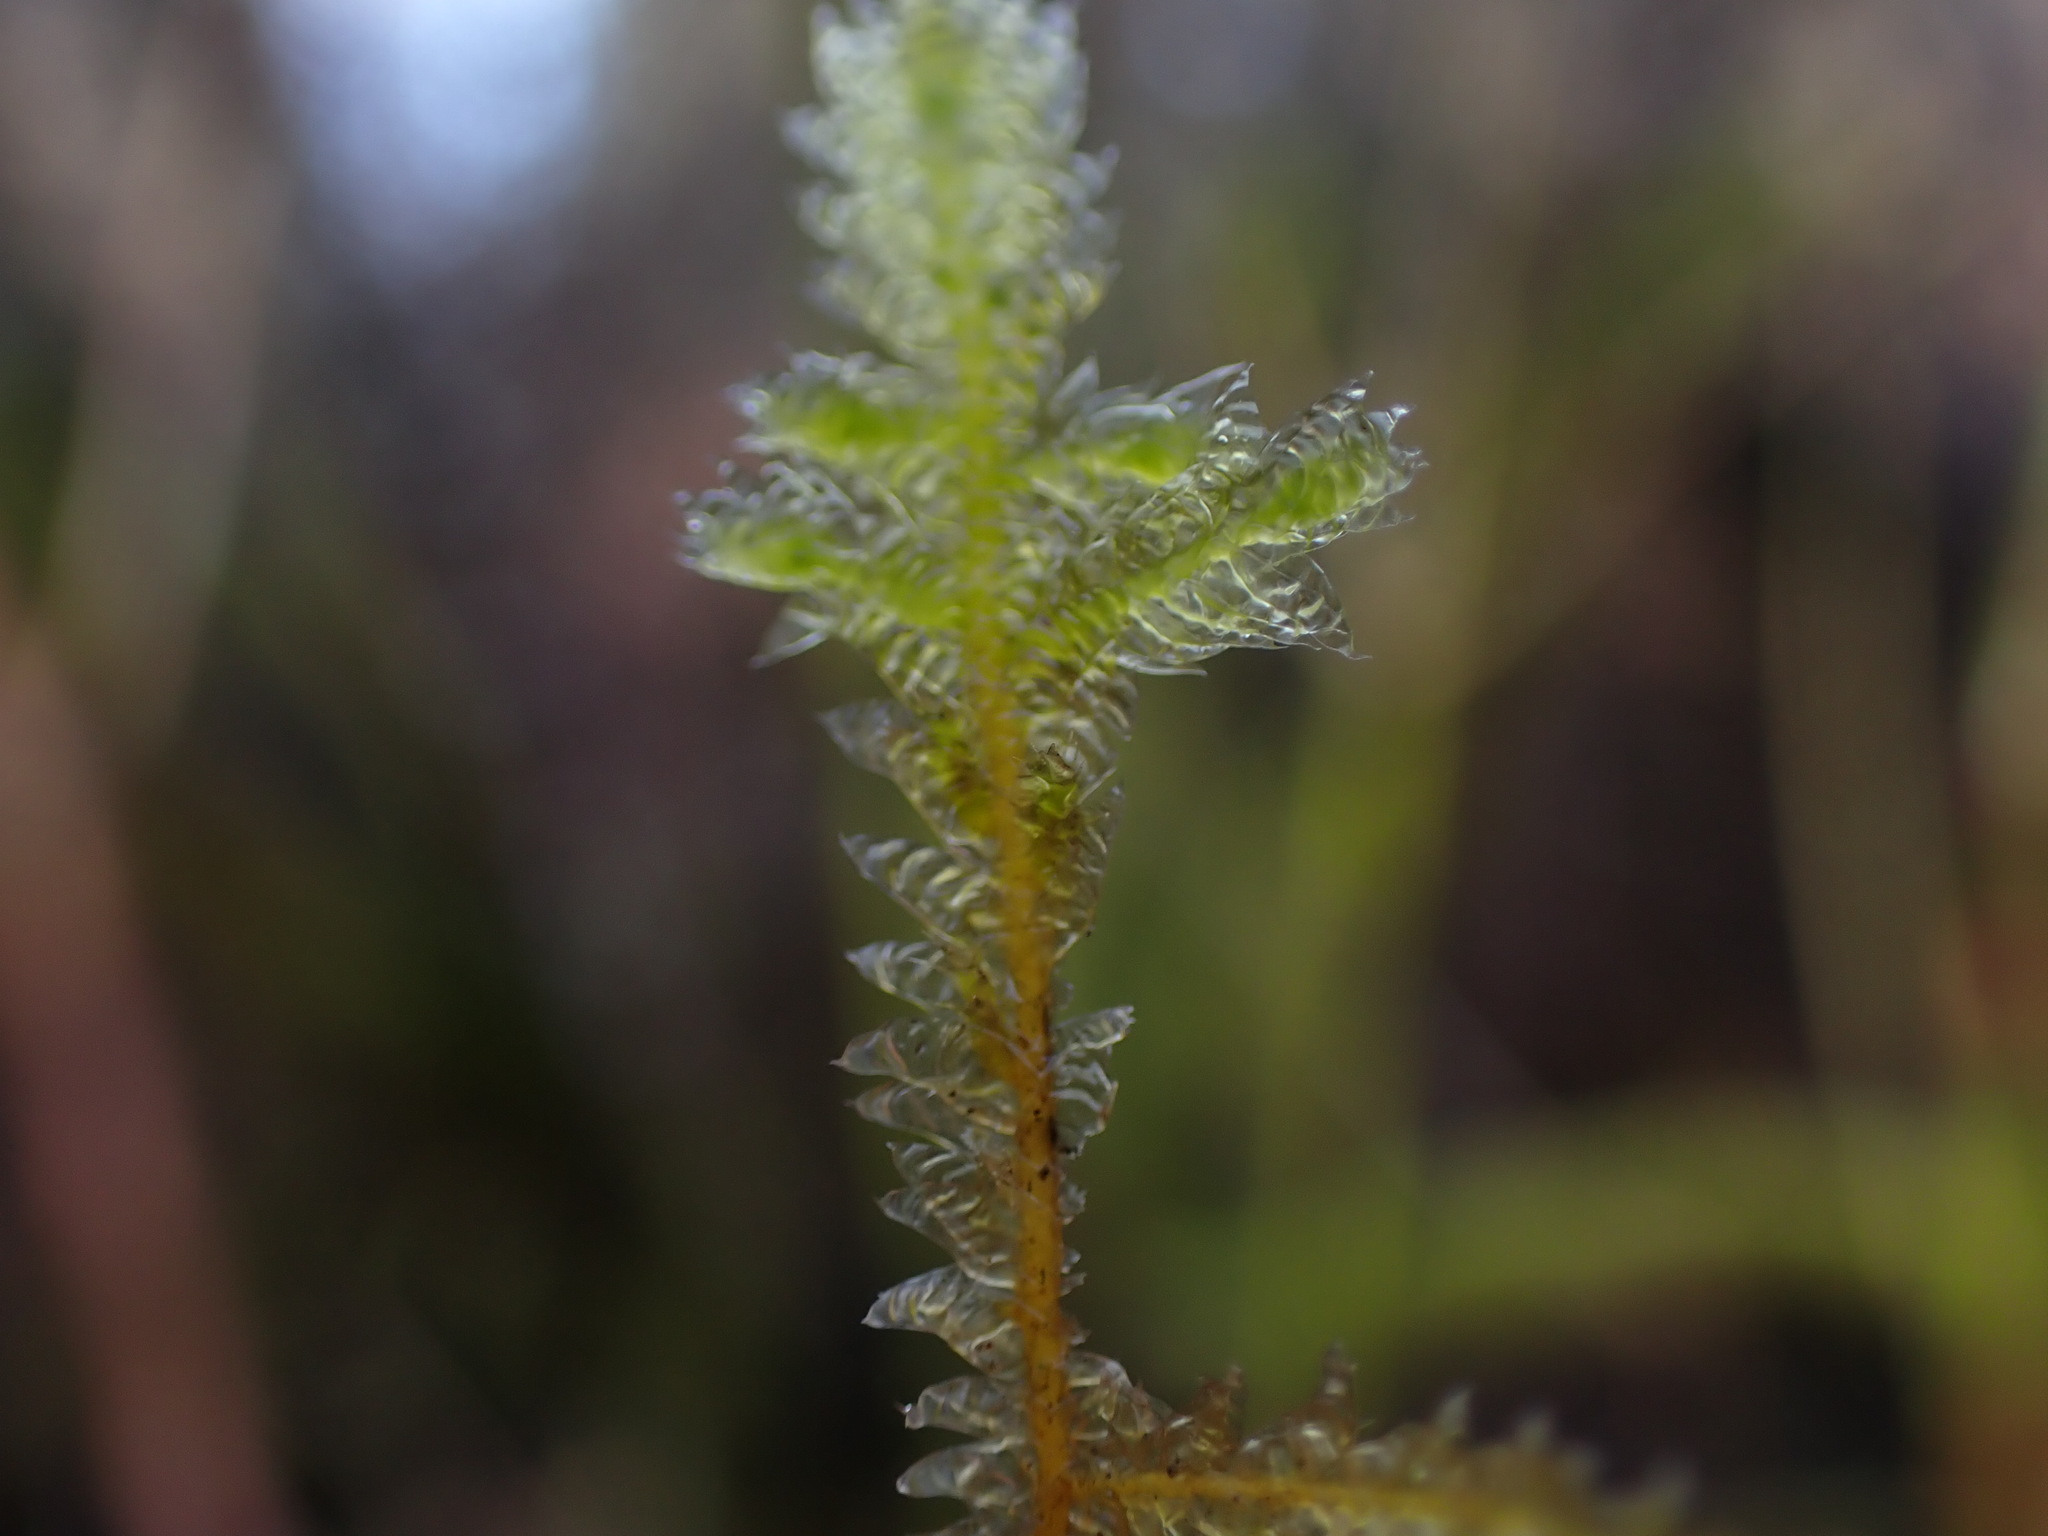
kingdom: Plantae
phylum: Bryophyta
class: Bryopsida
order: Hypnales
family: Neckeraceae
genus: Neckera
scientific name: Neckera douglasii
